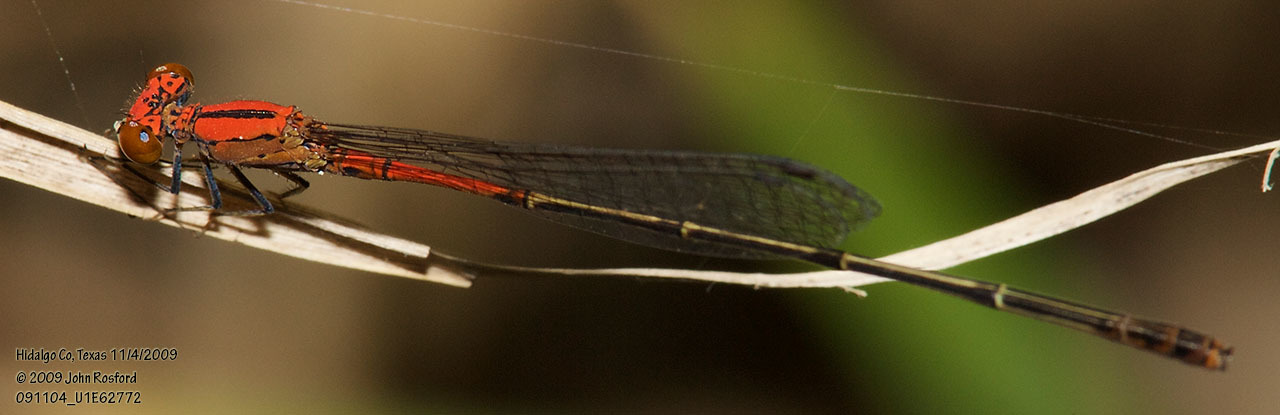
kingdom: Animalia
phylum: Arthropoda
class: Insecta
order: Odonata
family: Coenagrionidae
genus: Neoneura
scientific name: Neoneura amelia
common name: Amelia’s threadtail
